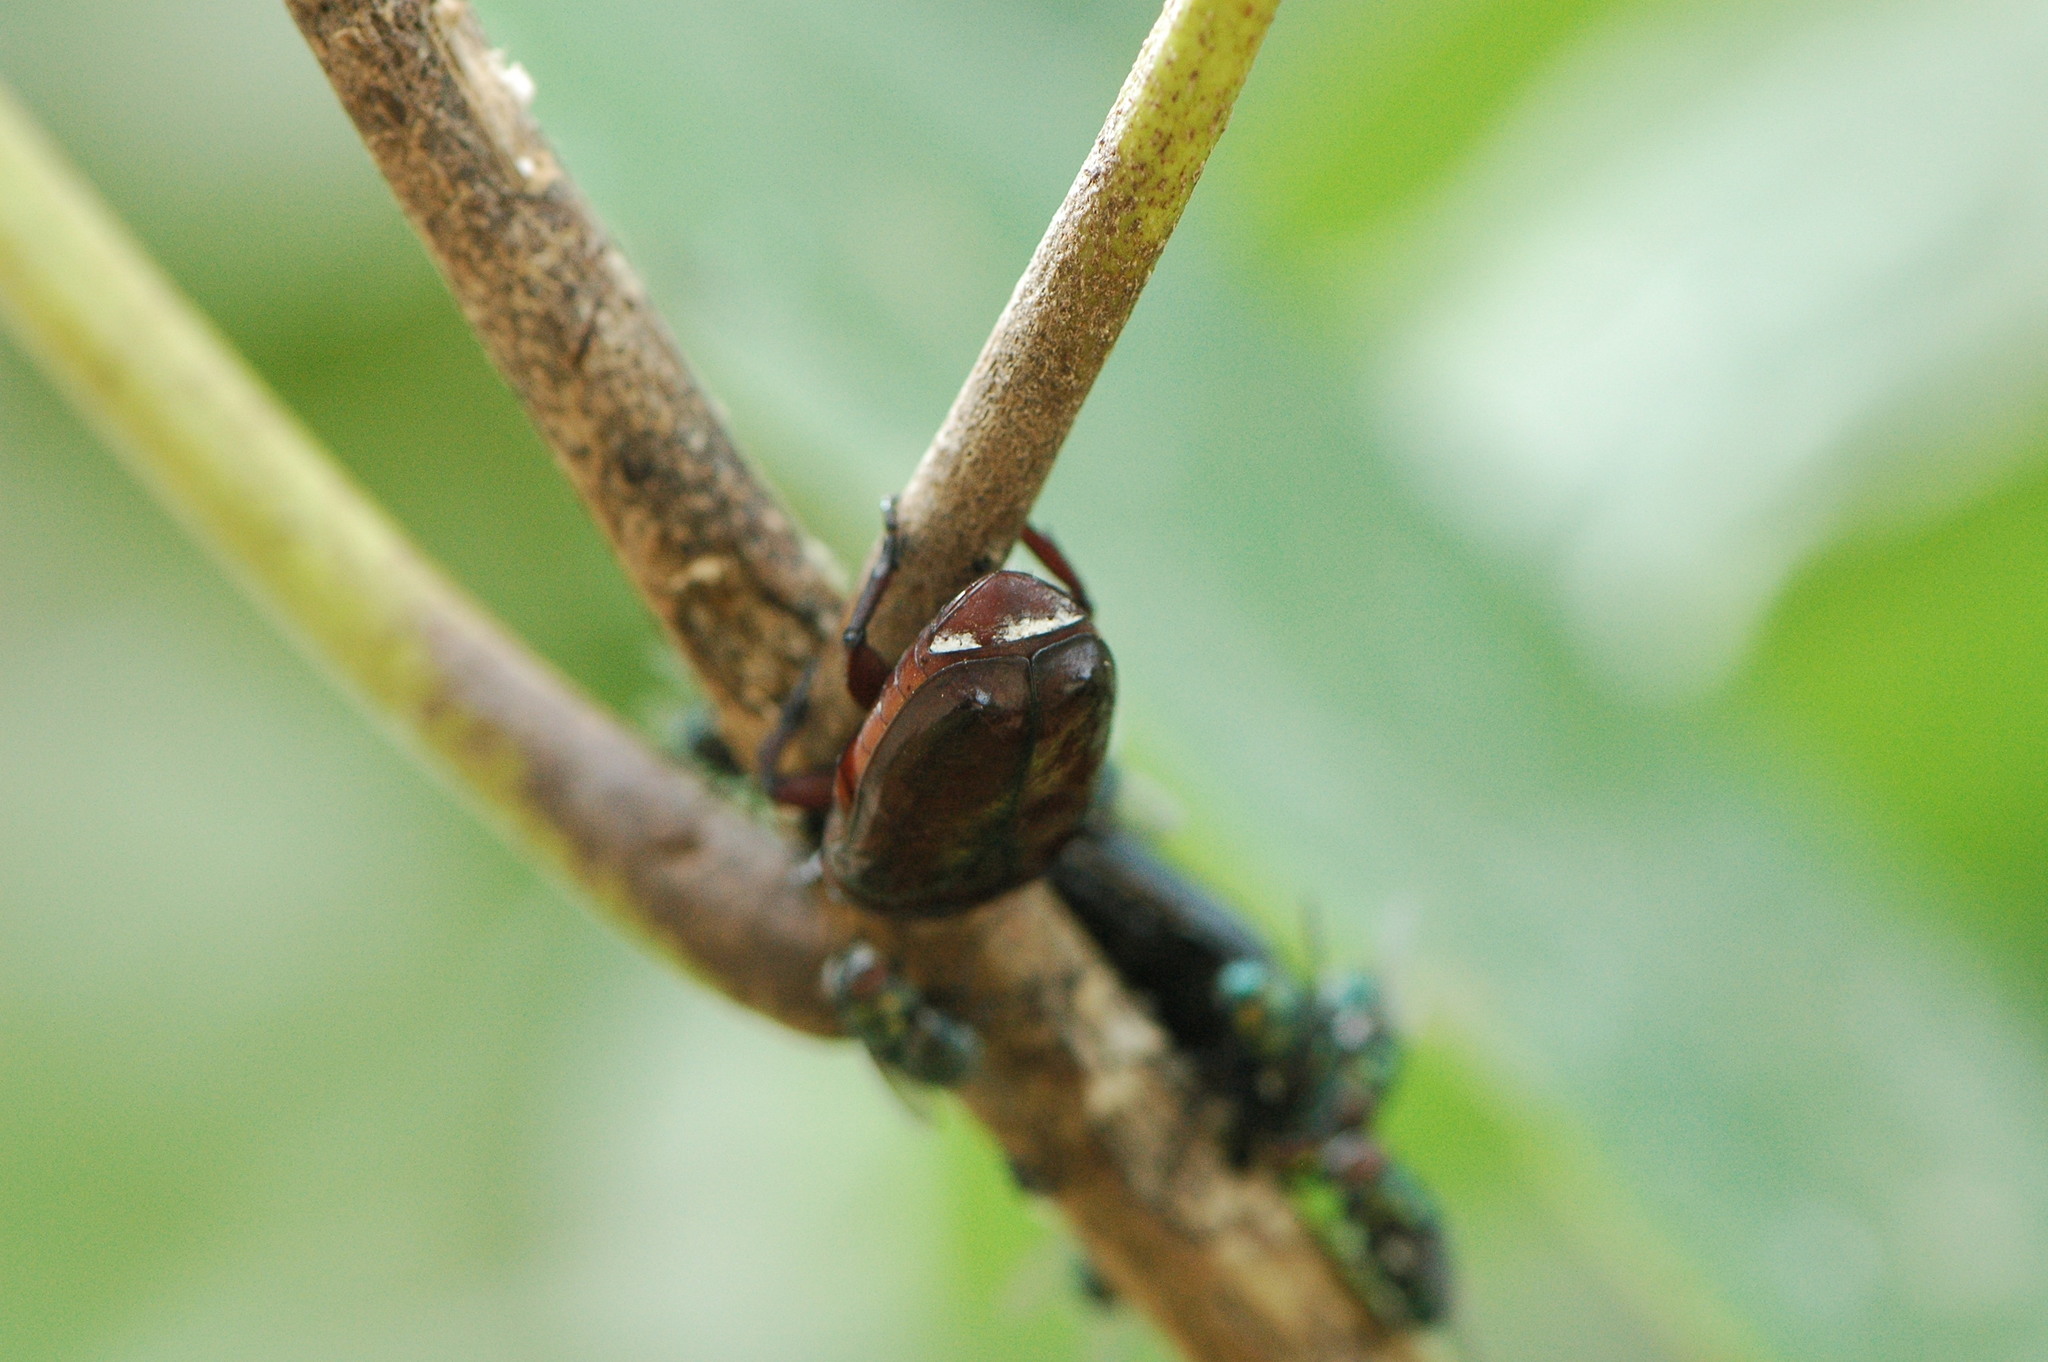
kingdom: Animalia
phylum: Arthropoda
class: Insecta
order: Coleoptera
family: Scarabaeidae
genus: Diplognatha
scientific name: Diplognatha gagates
